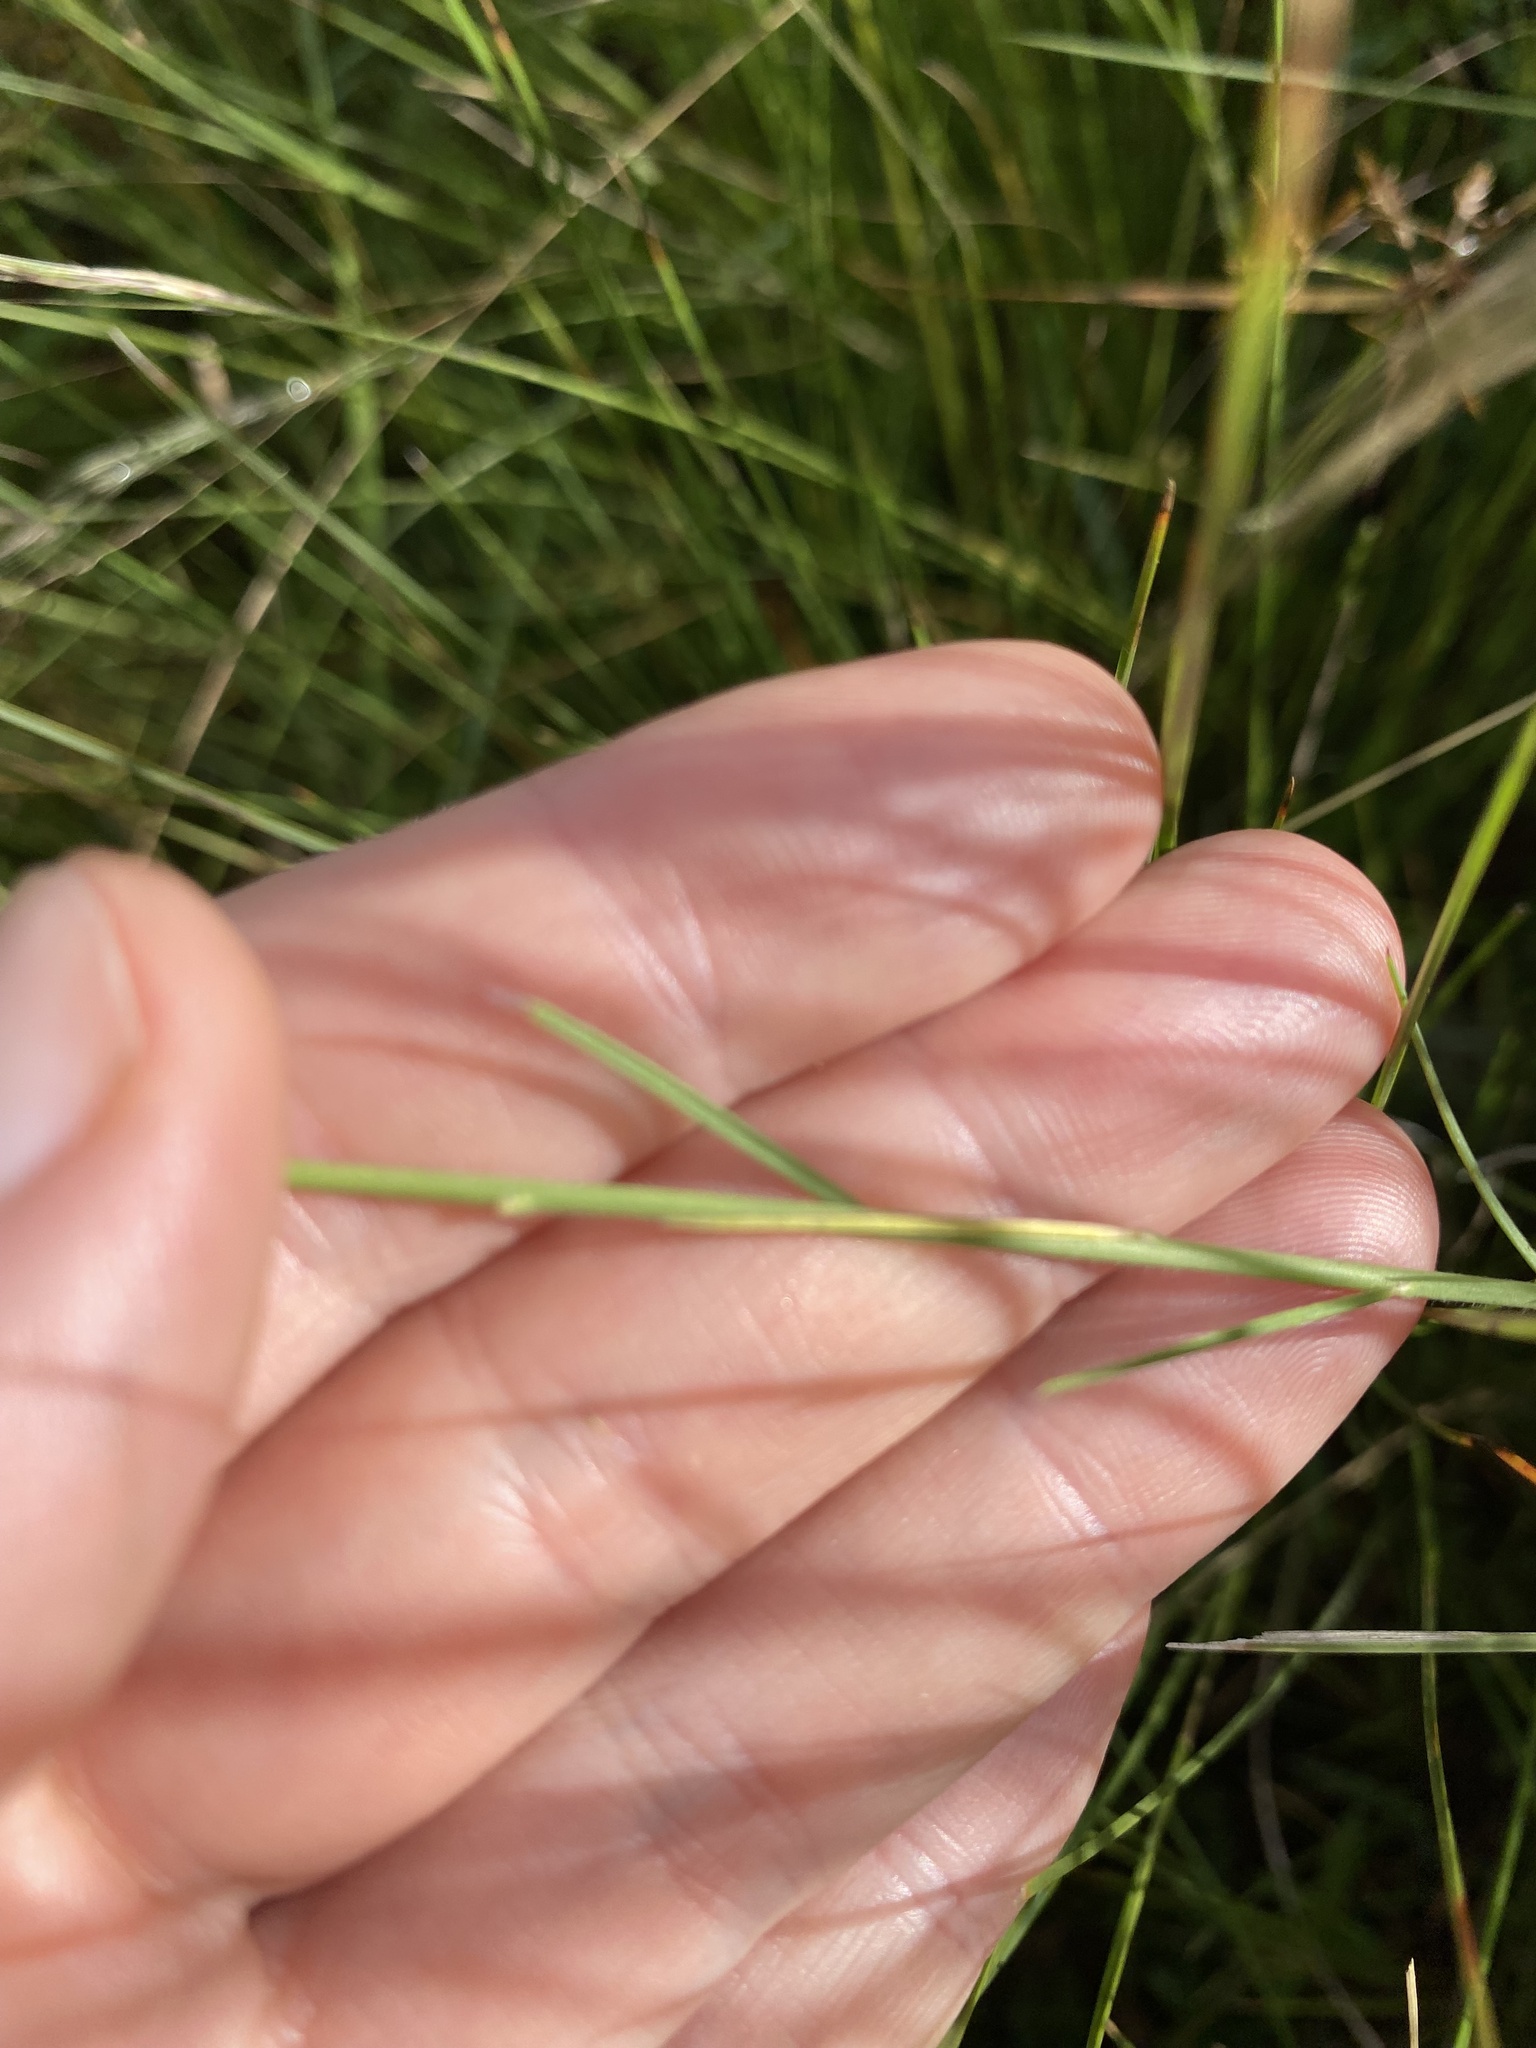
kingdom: Plantae
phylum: Tracheophyta
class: Magnoliopsida
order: Fabales
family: Polygalaceae
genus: Polygala
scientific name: Polygala hottentotta
